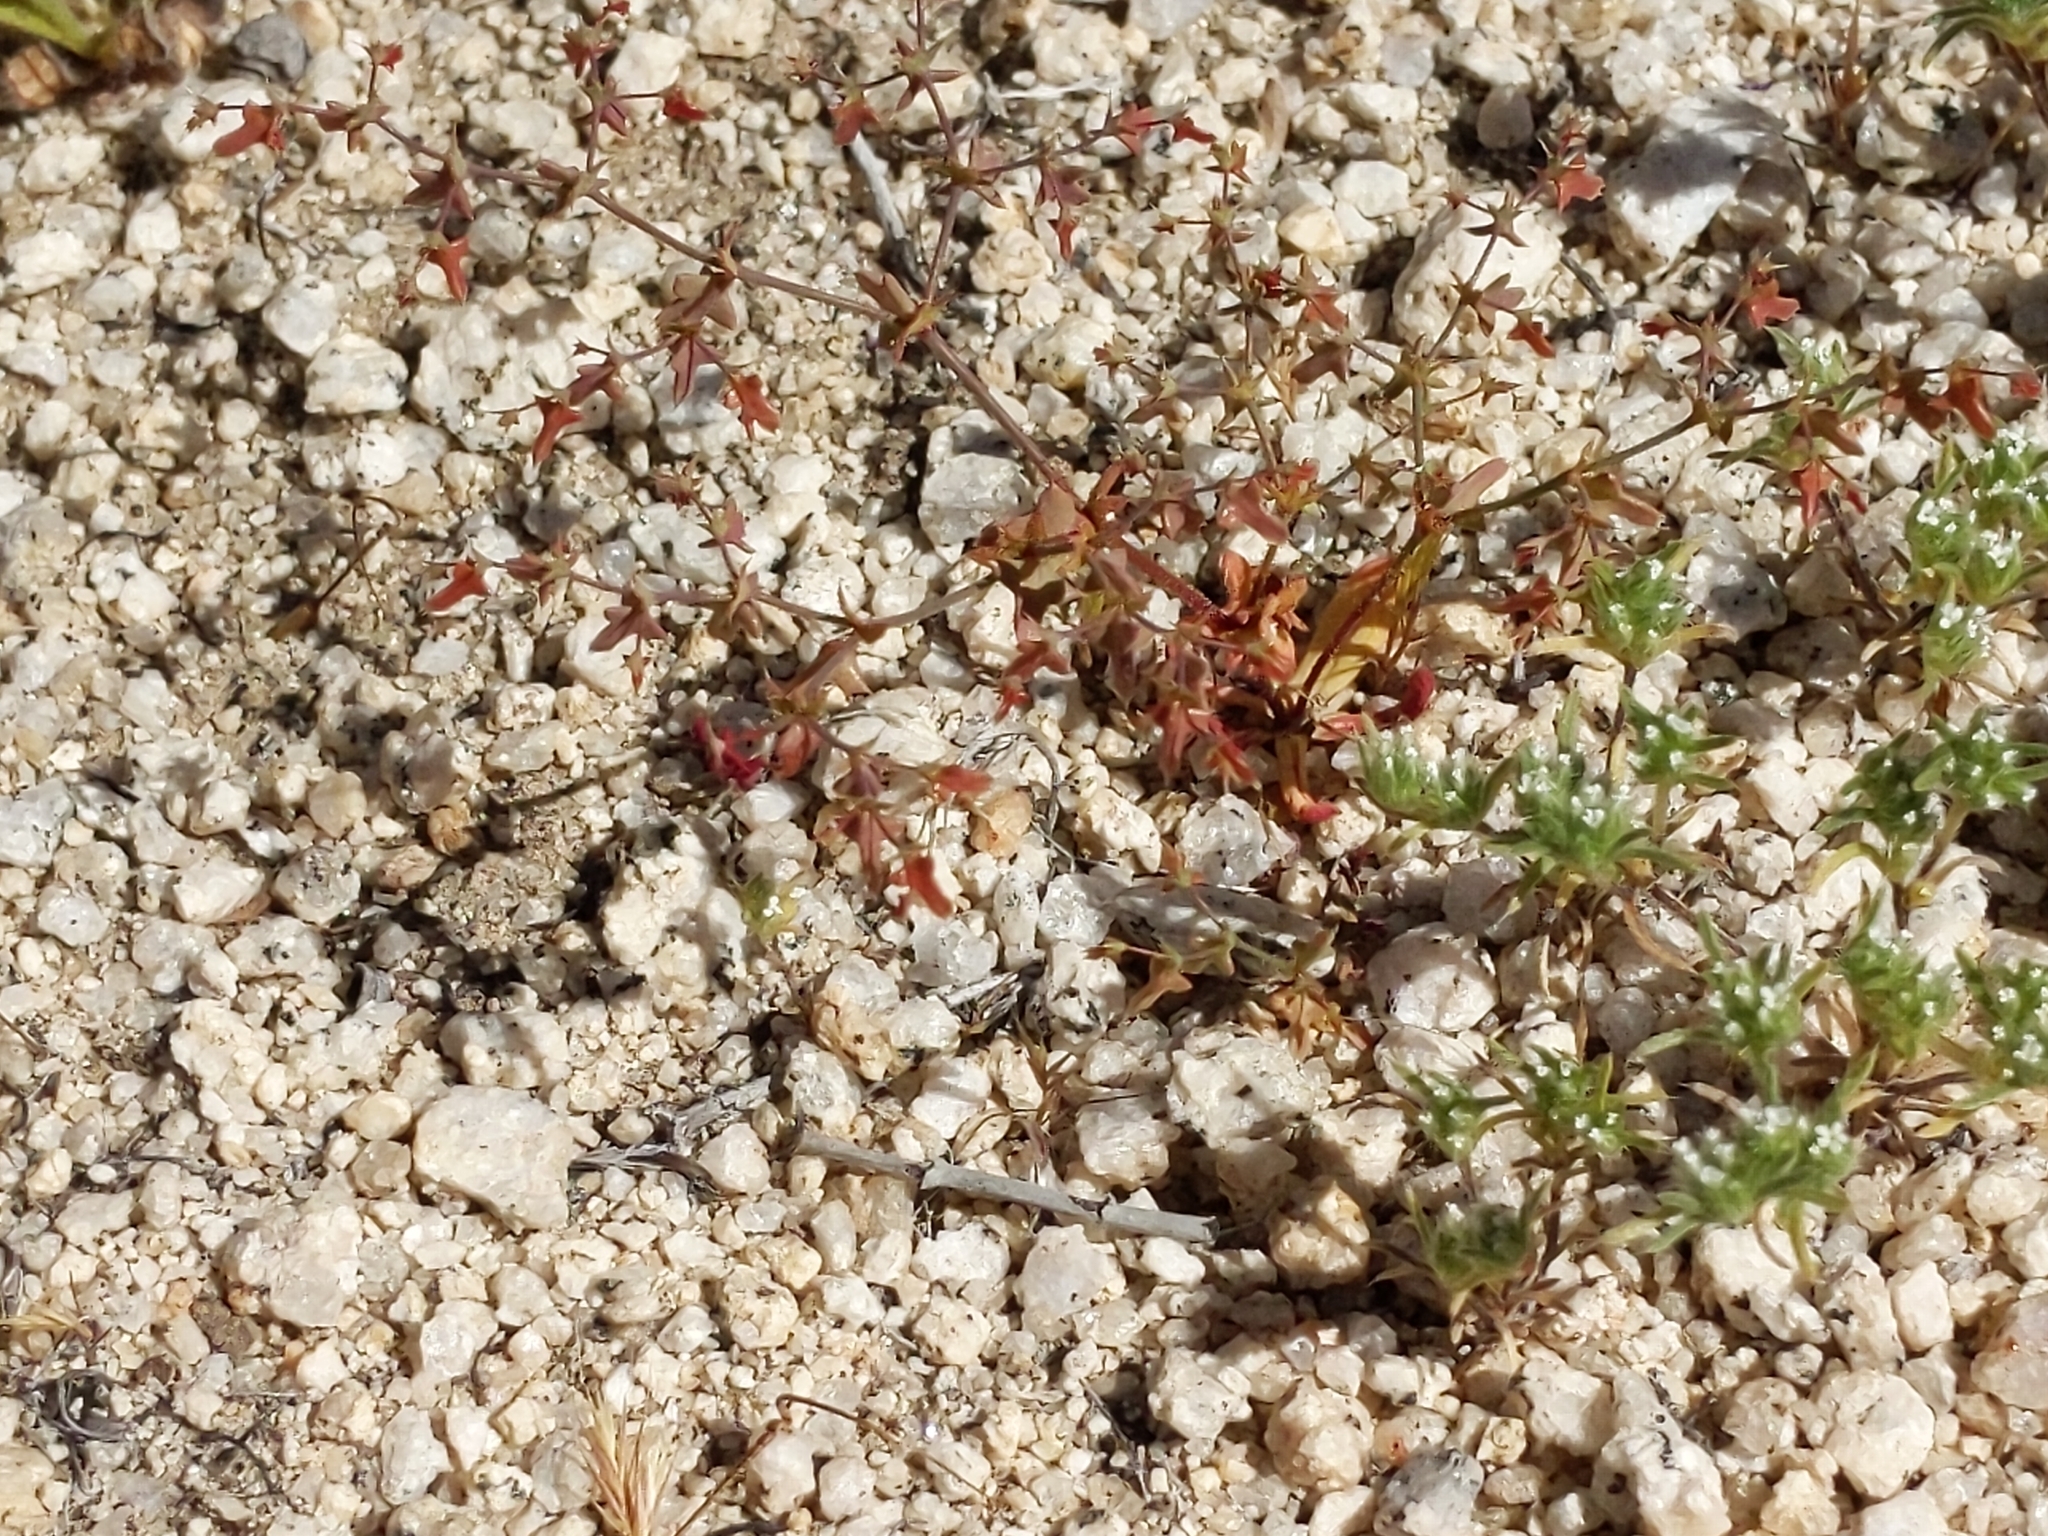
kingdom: Plantae
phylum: Tracheophyta
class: Magnoliopsida
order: Caryophyllales
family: Polygonaceae
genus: Centrostegia
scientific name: Centrostegia thurberi
